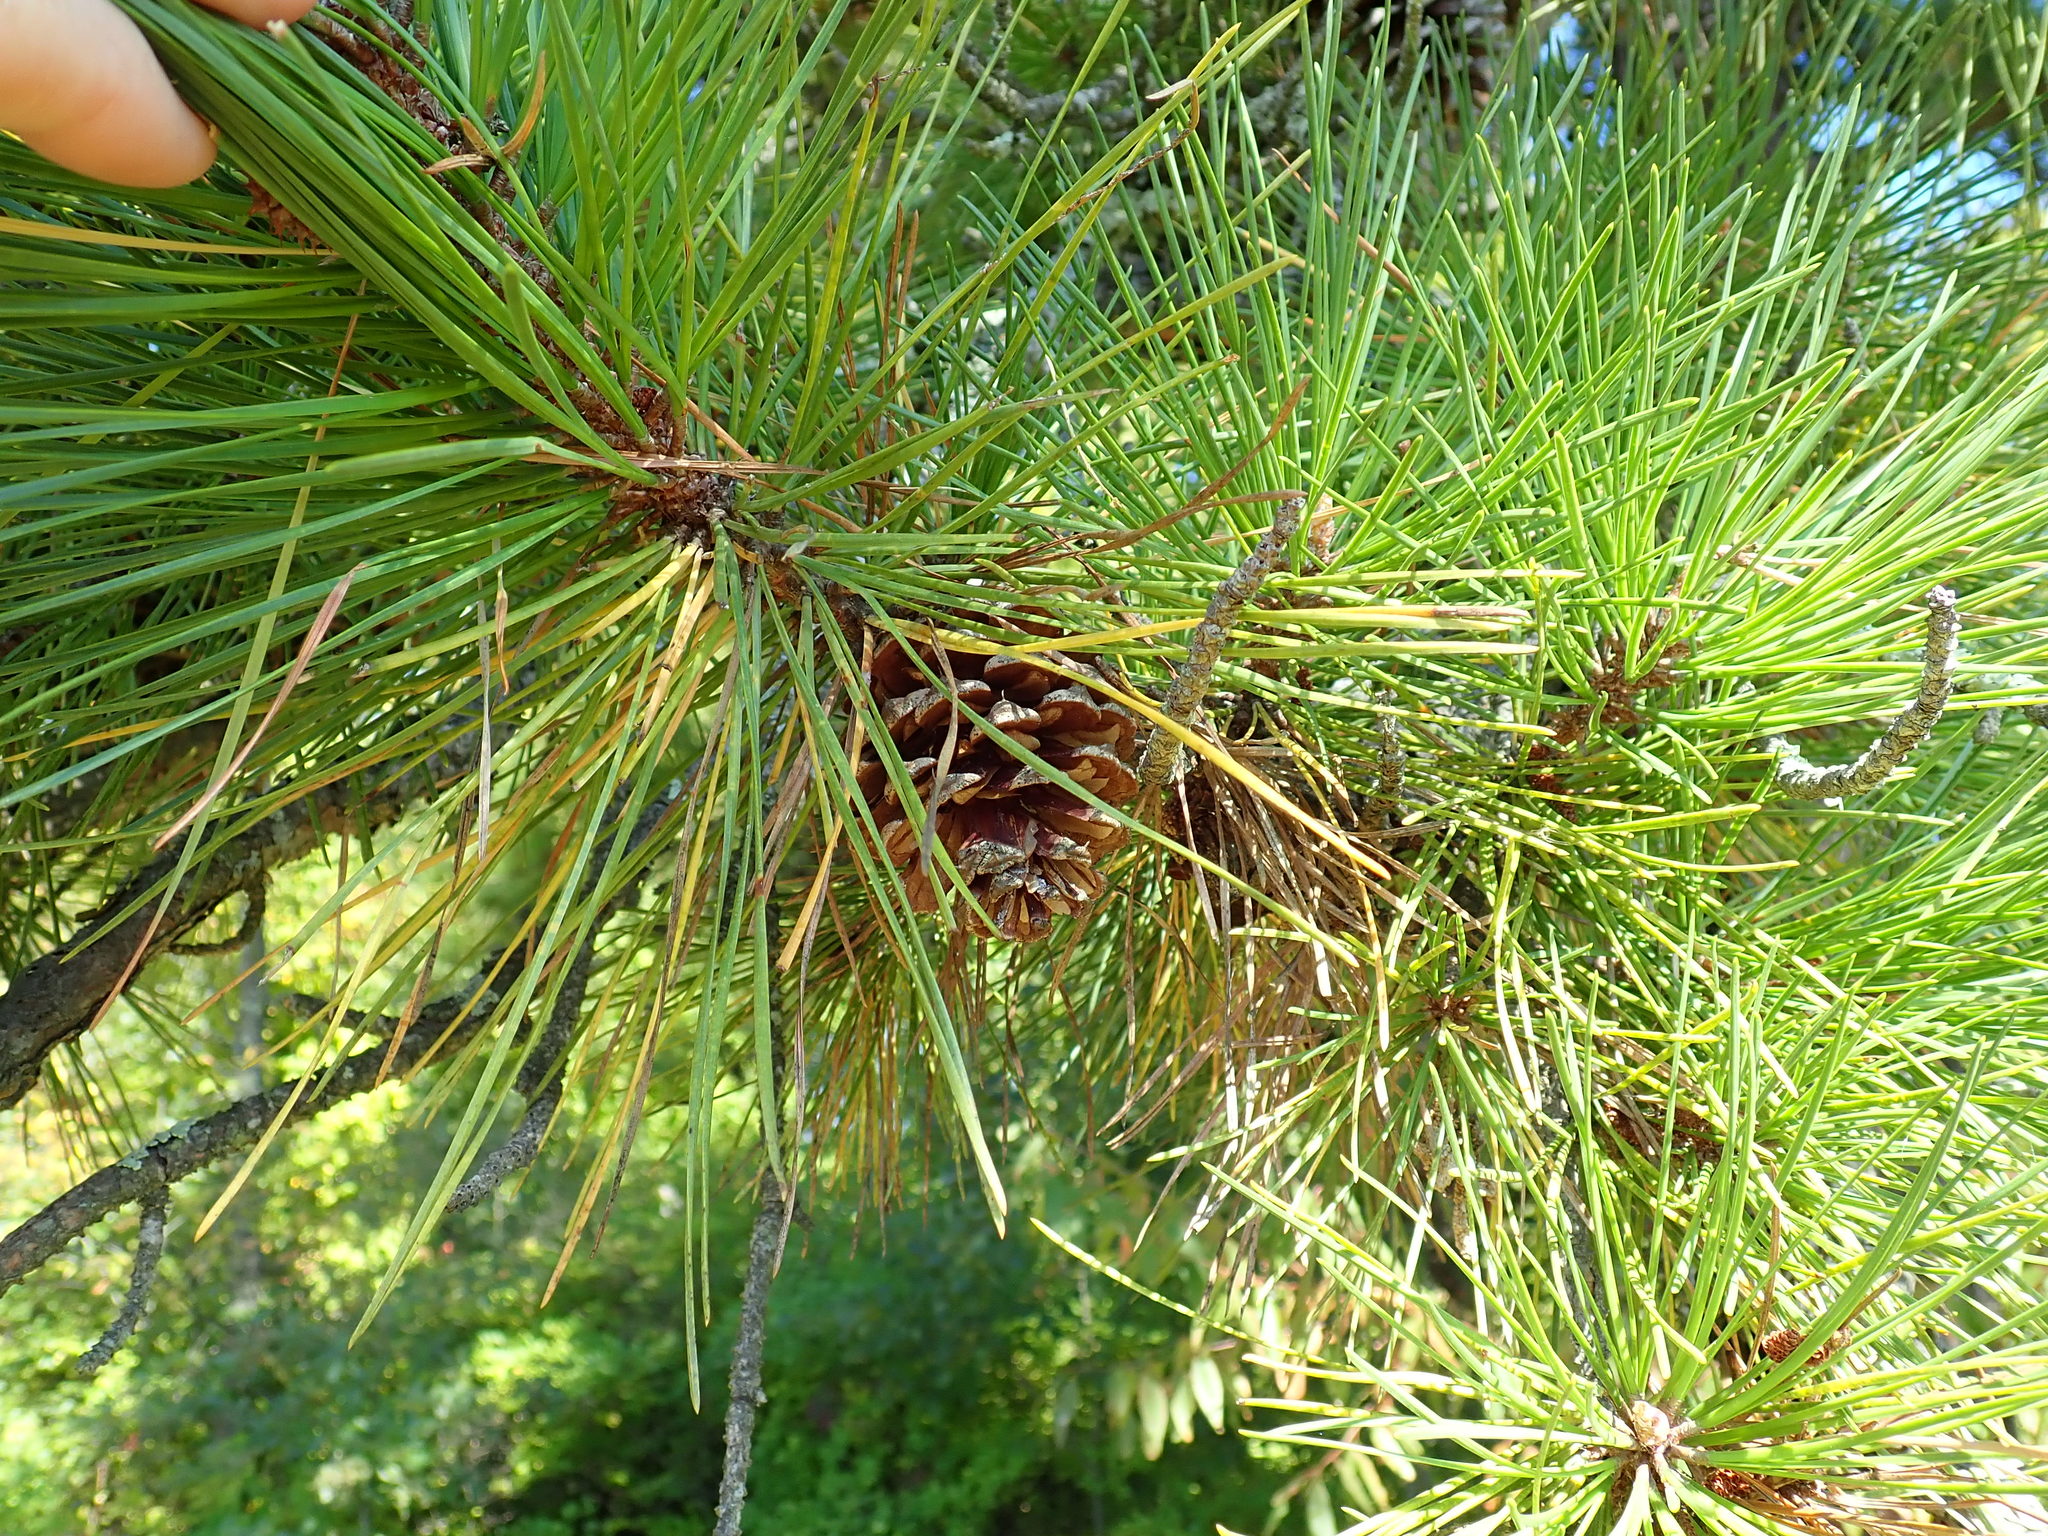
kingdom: Plantae
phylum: Tracheophyta
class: Pinopsida
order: Pinales
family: Pinaceae
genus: Pinus
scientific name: Pinus rigida
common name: Pitch pine
